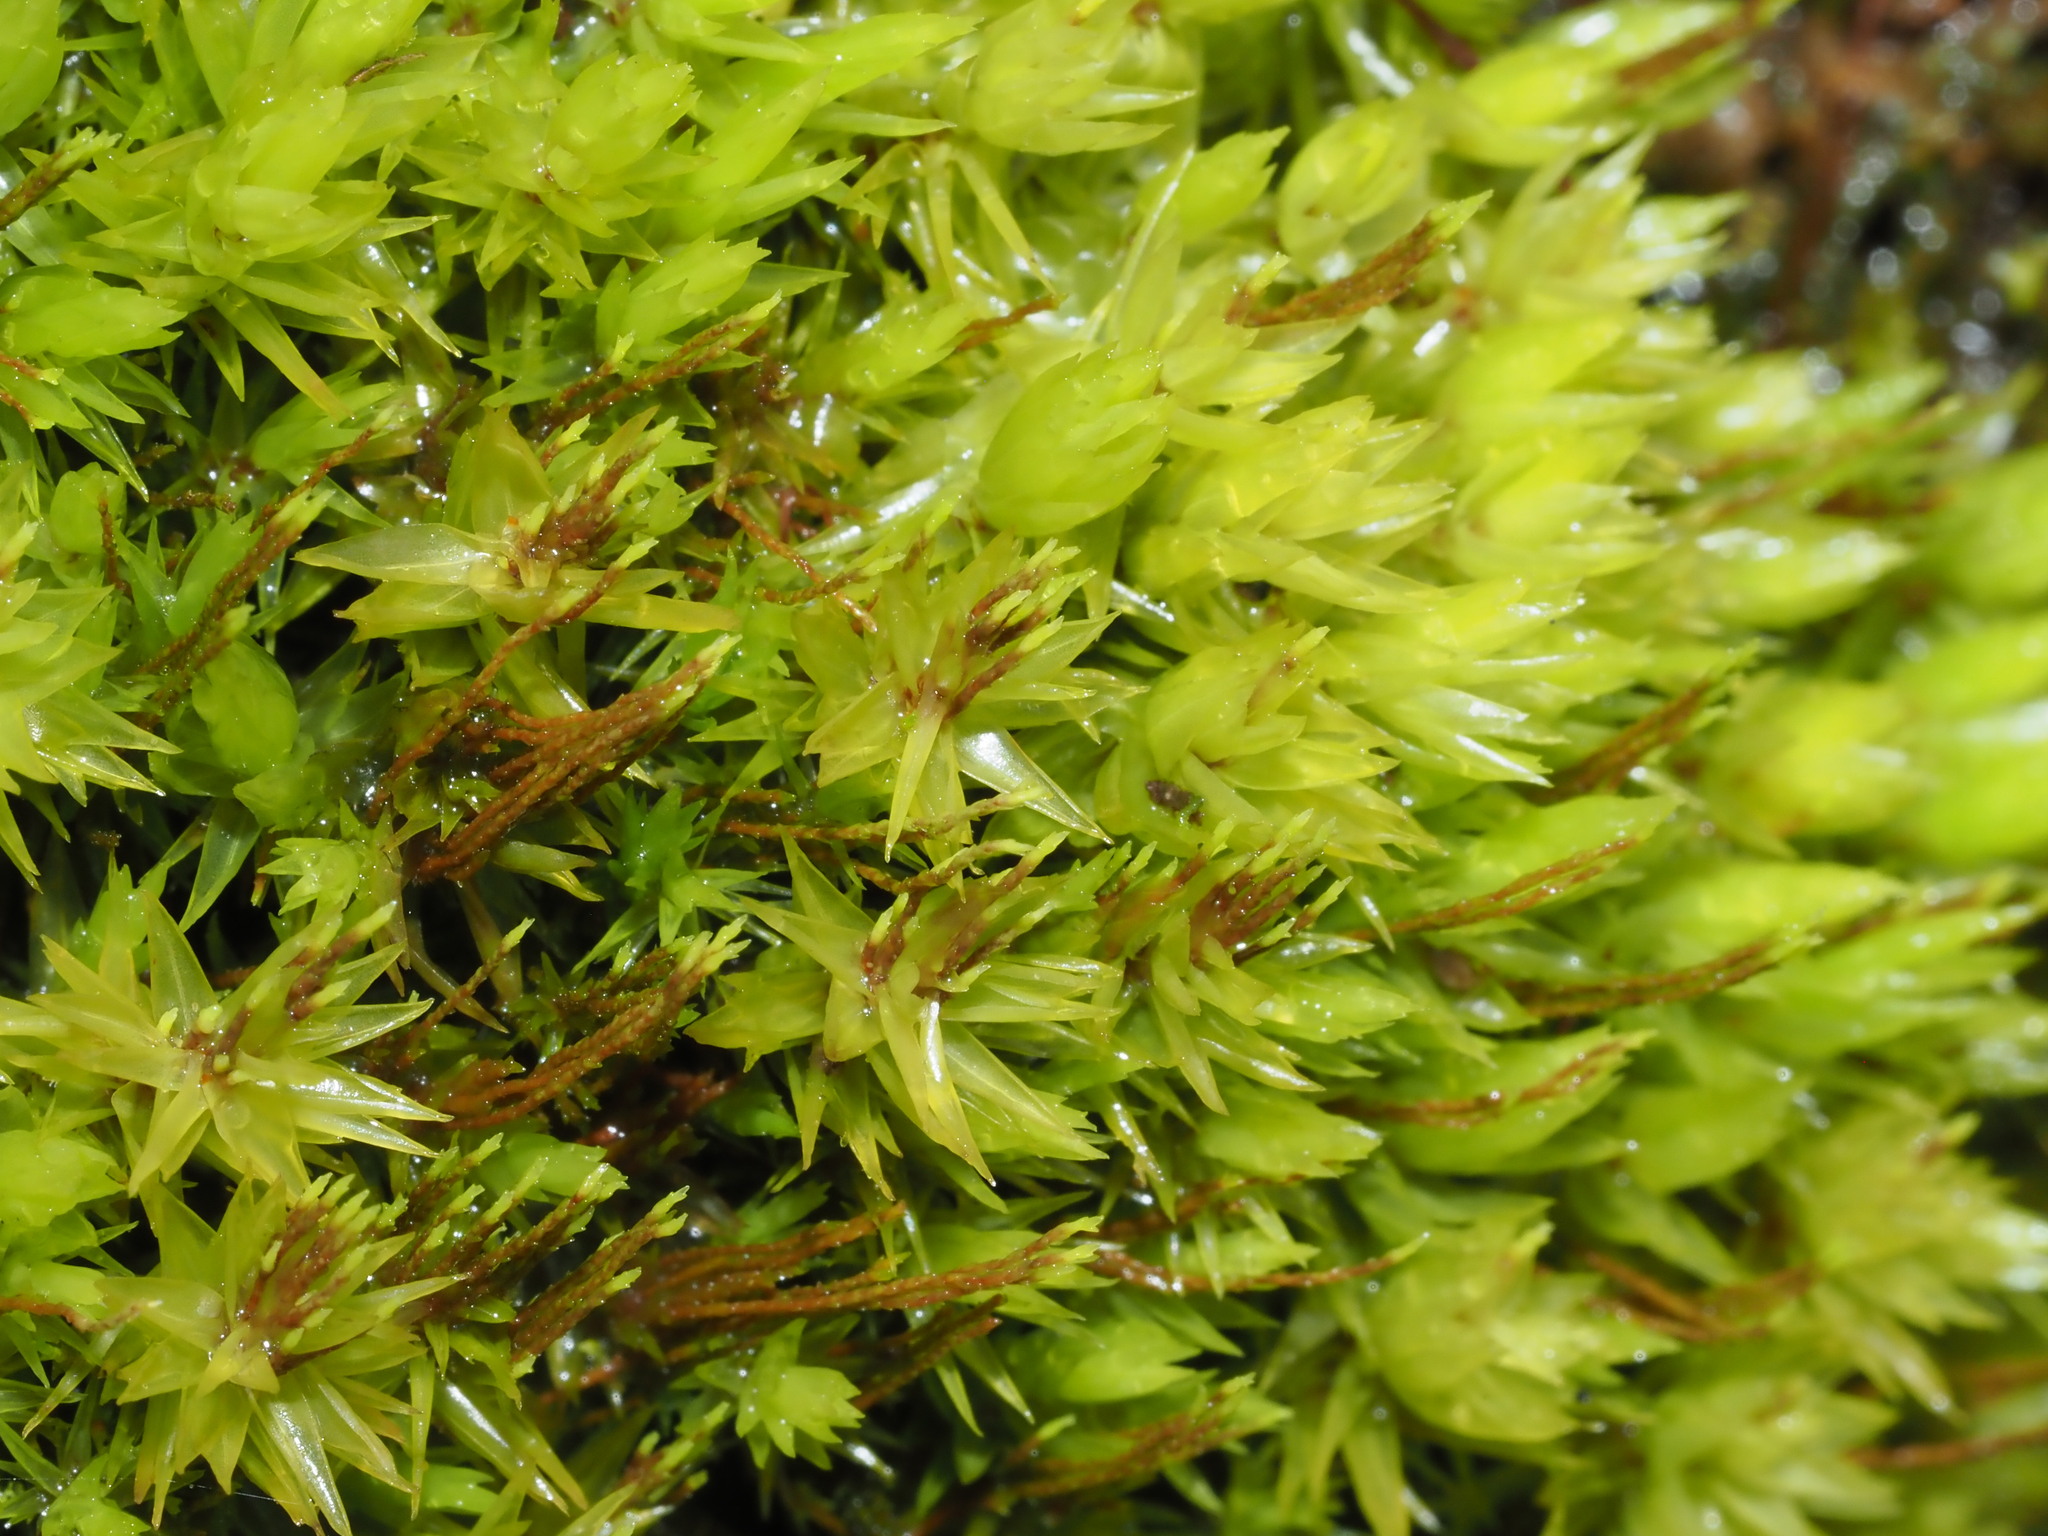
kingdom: Plantae
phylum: Bryophyta
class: Bryopsida
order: Dicranales
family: Dicranaceae
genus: Dicranum
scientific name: Dicranum speirophyllum
